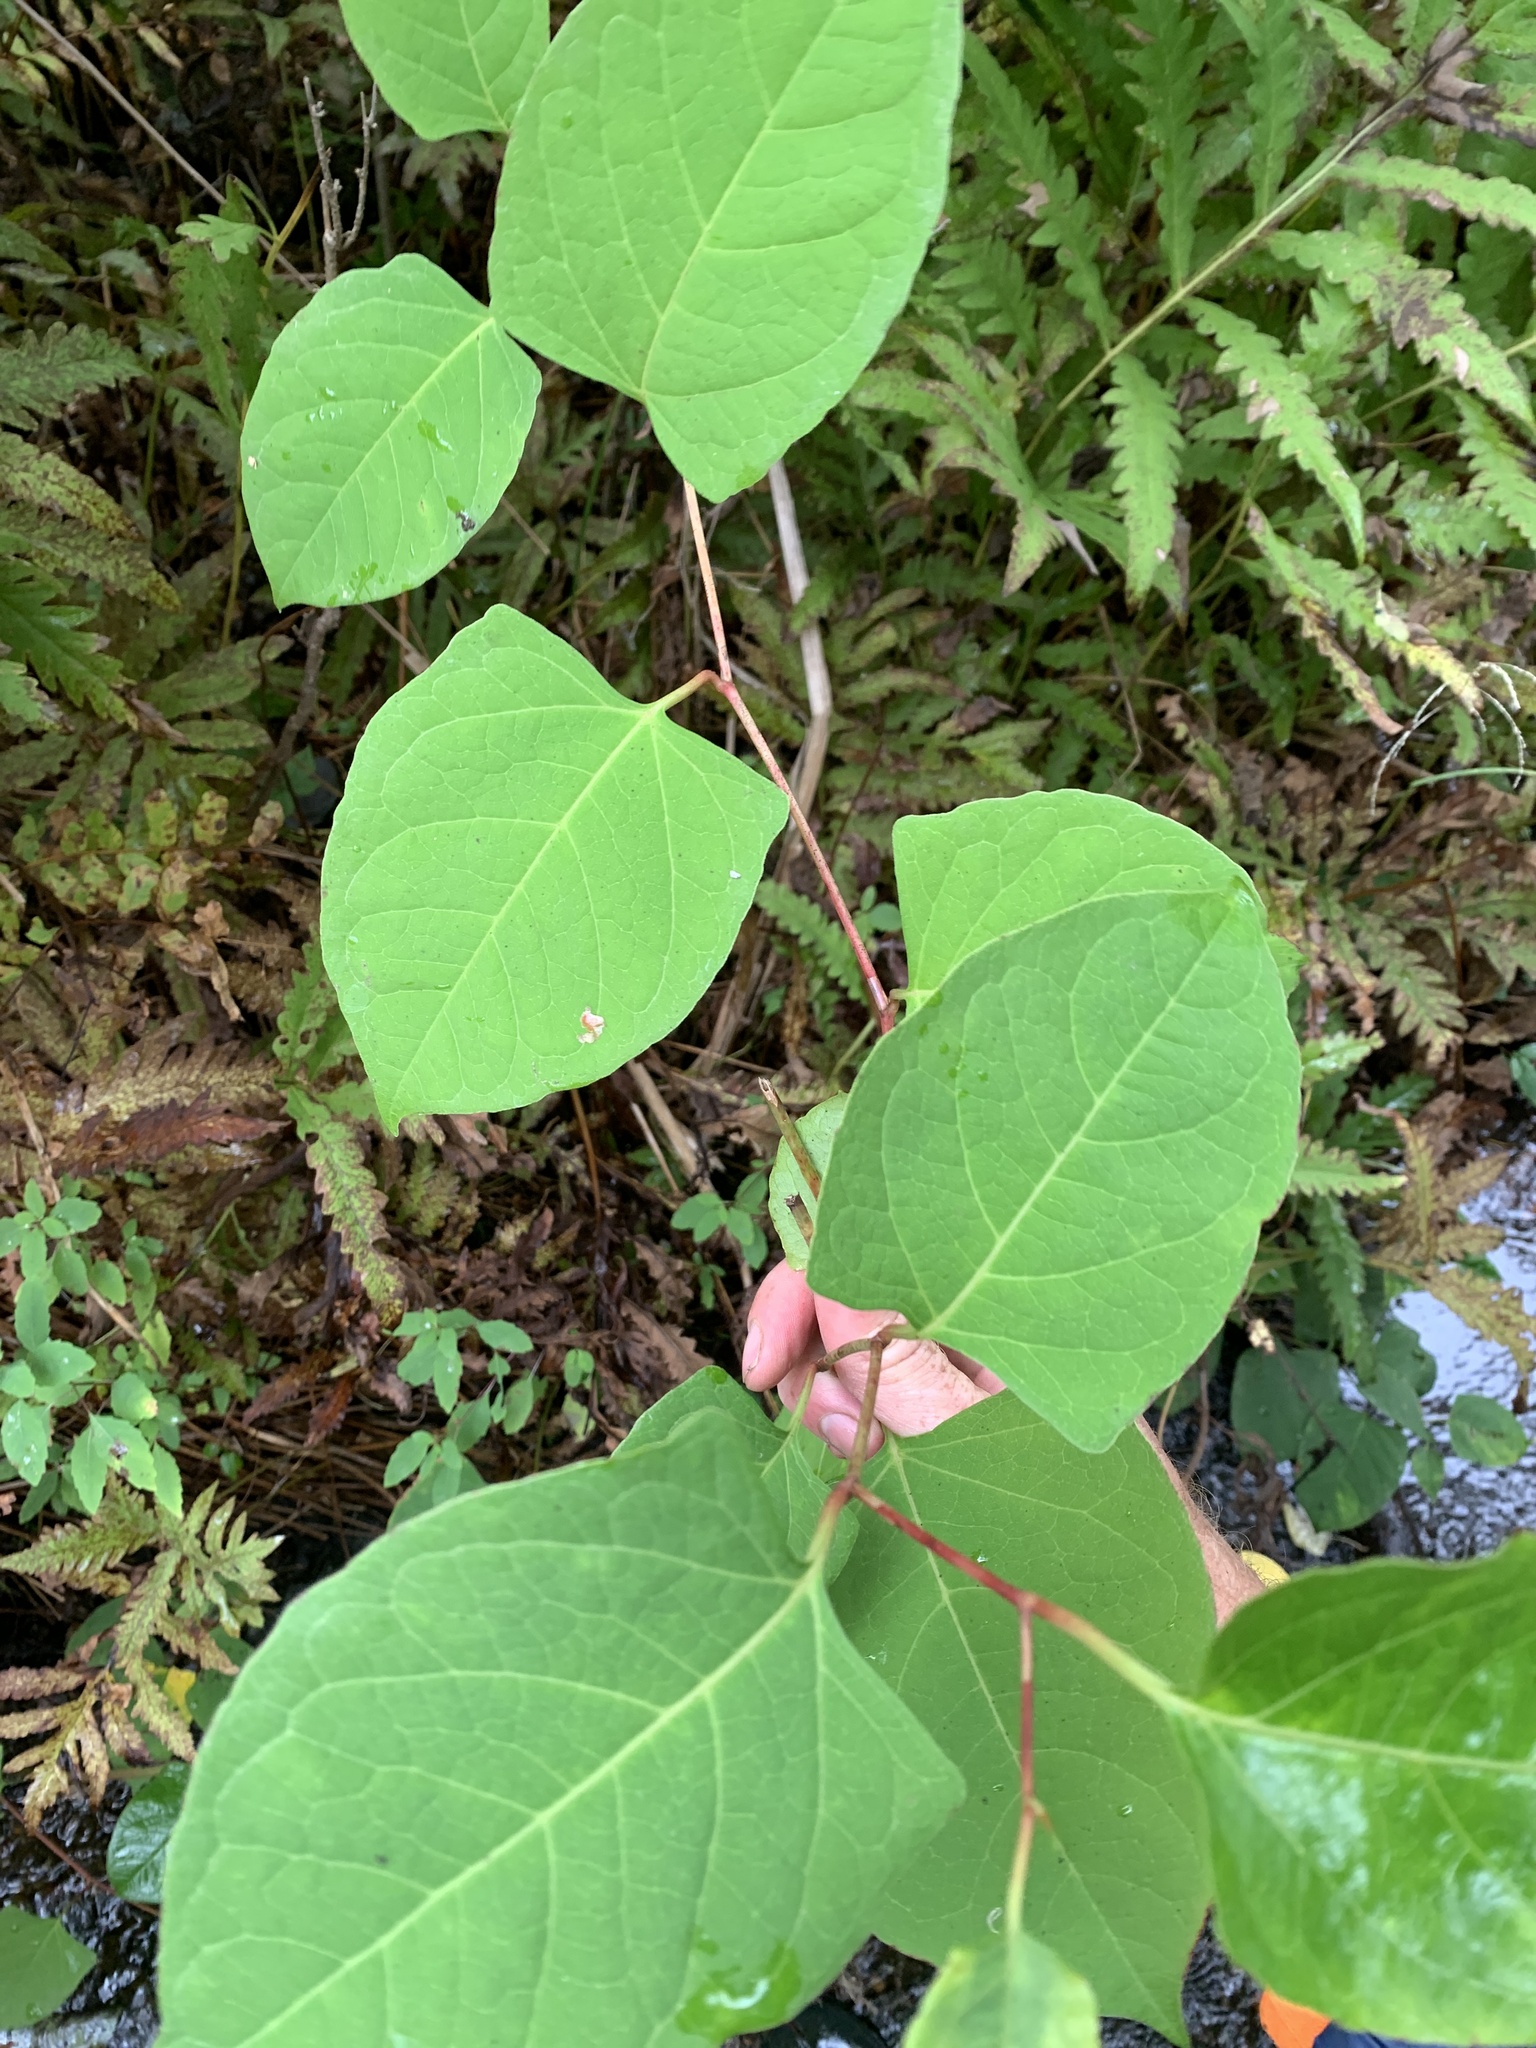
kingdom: Plantae
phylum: Tracheophyta
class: Magnoliopsida
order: Caryophyllales
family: Polygonaceae
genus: Reynoutria
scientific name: Reynoutria japonica
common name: Japanese knotweed
